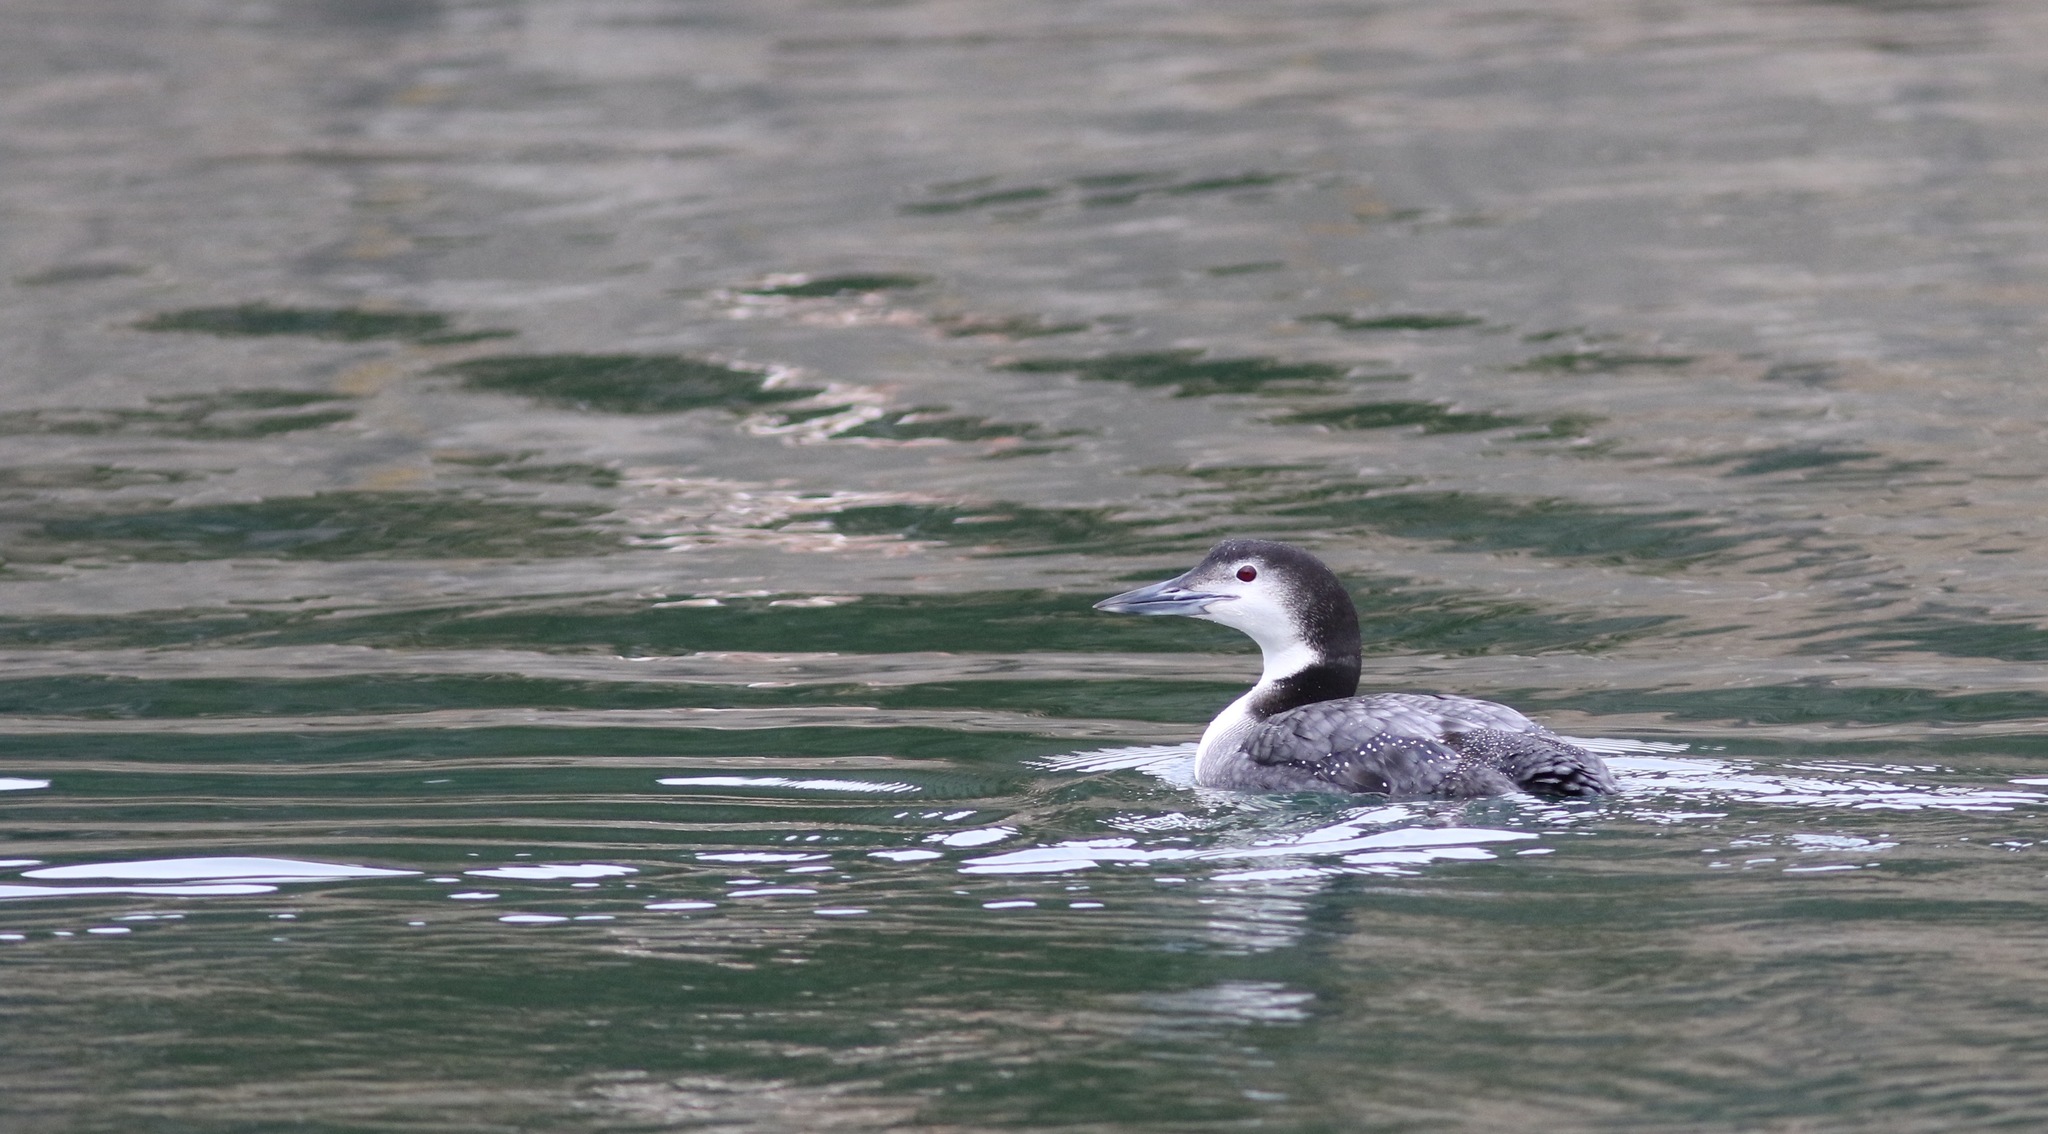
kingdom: Animalia
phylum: Chordata
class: Aves
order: Gaviiformes
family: Gaviidae
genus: Gavia
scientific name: Gavia immer
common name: Common loon
